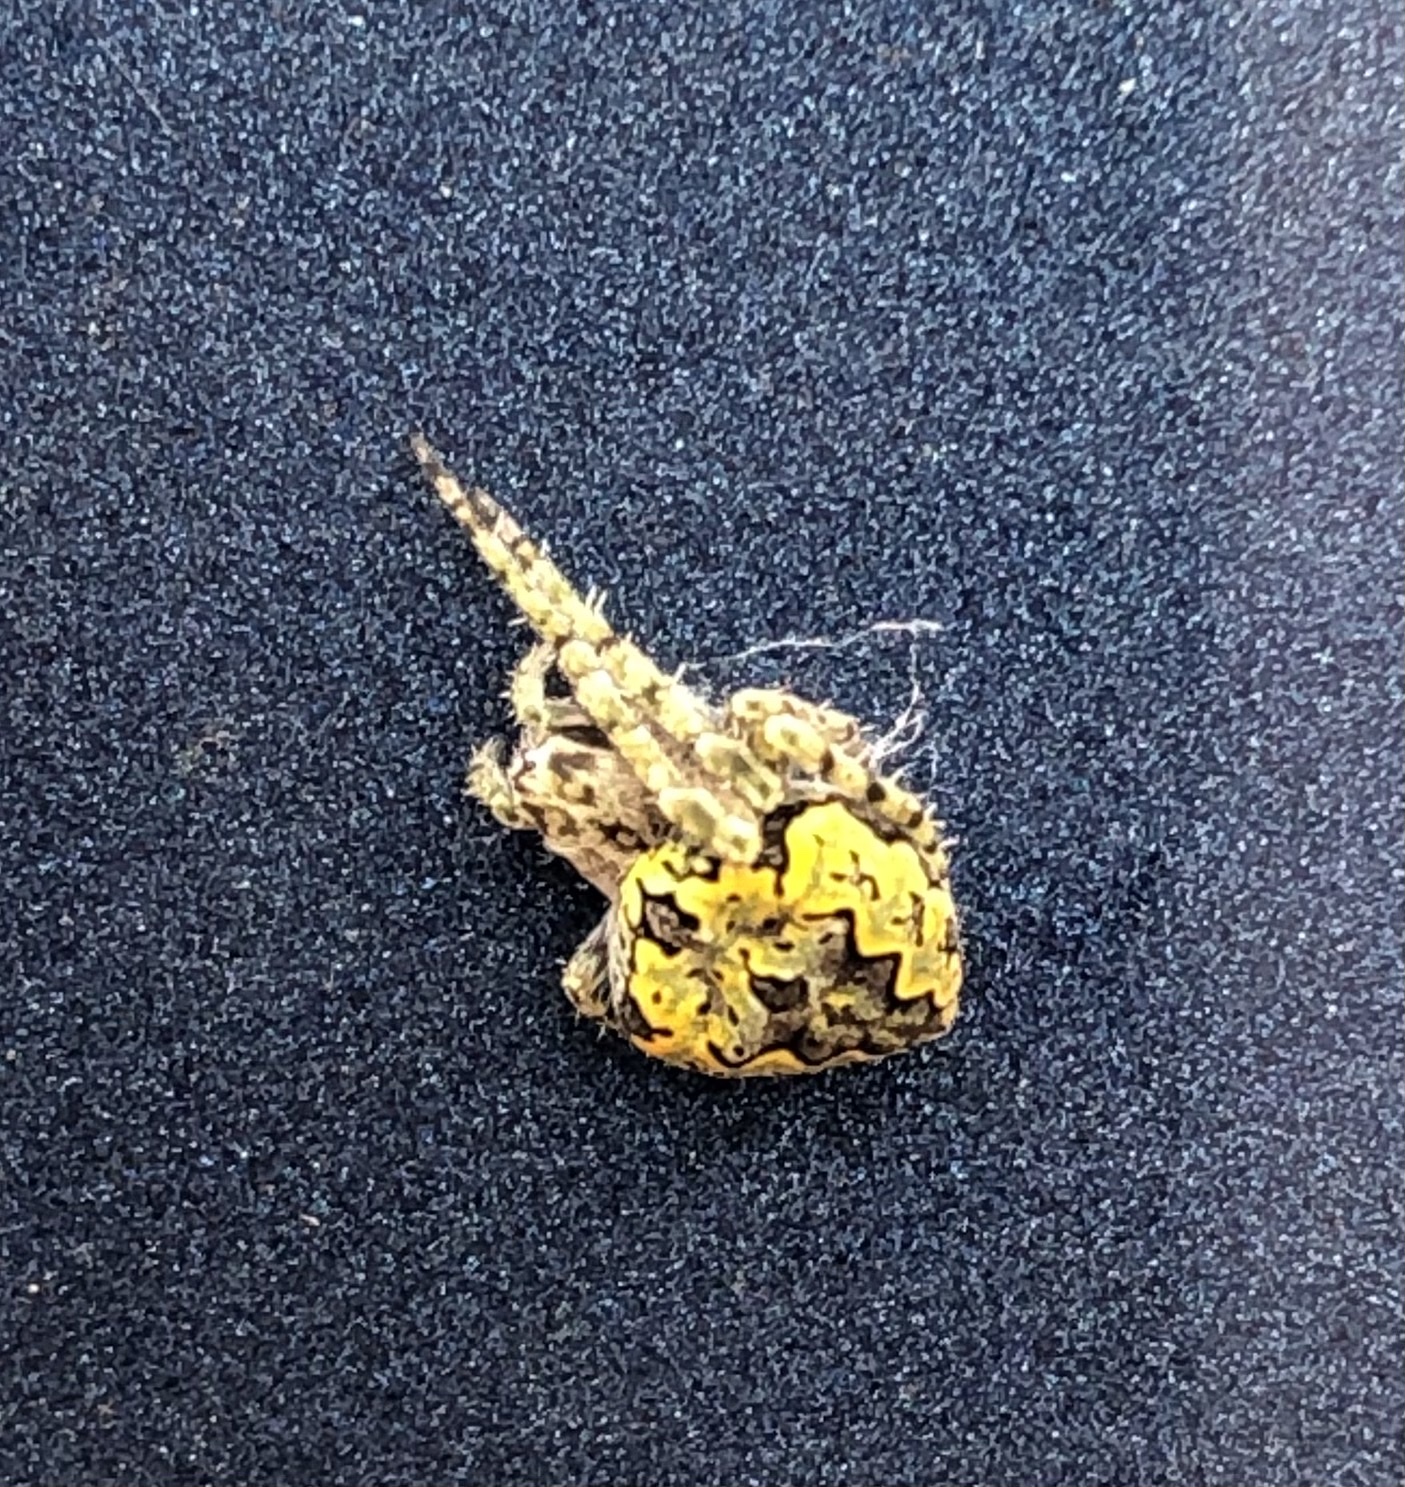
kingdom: Animalia
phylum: Arthropoda
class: Arachnida
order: Araneae
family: Araneidae
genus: Eustala
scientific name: Eustala anastera
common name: Orb weavers
